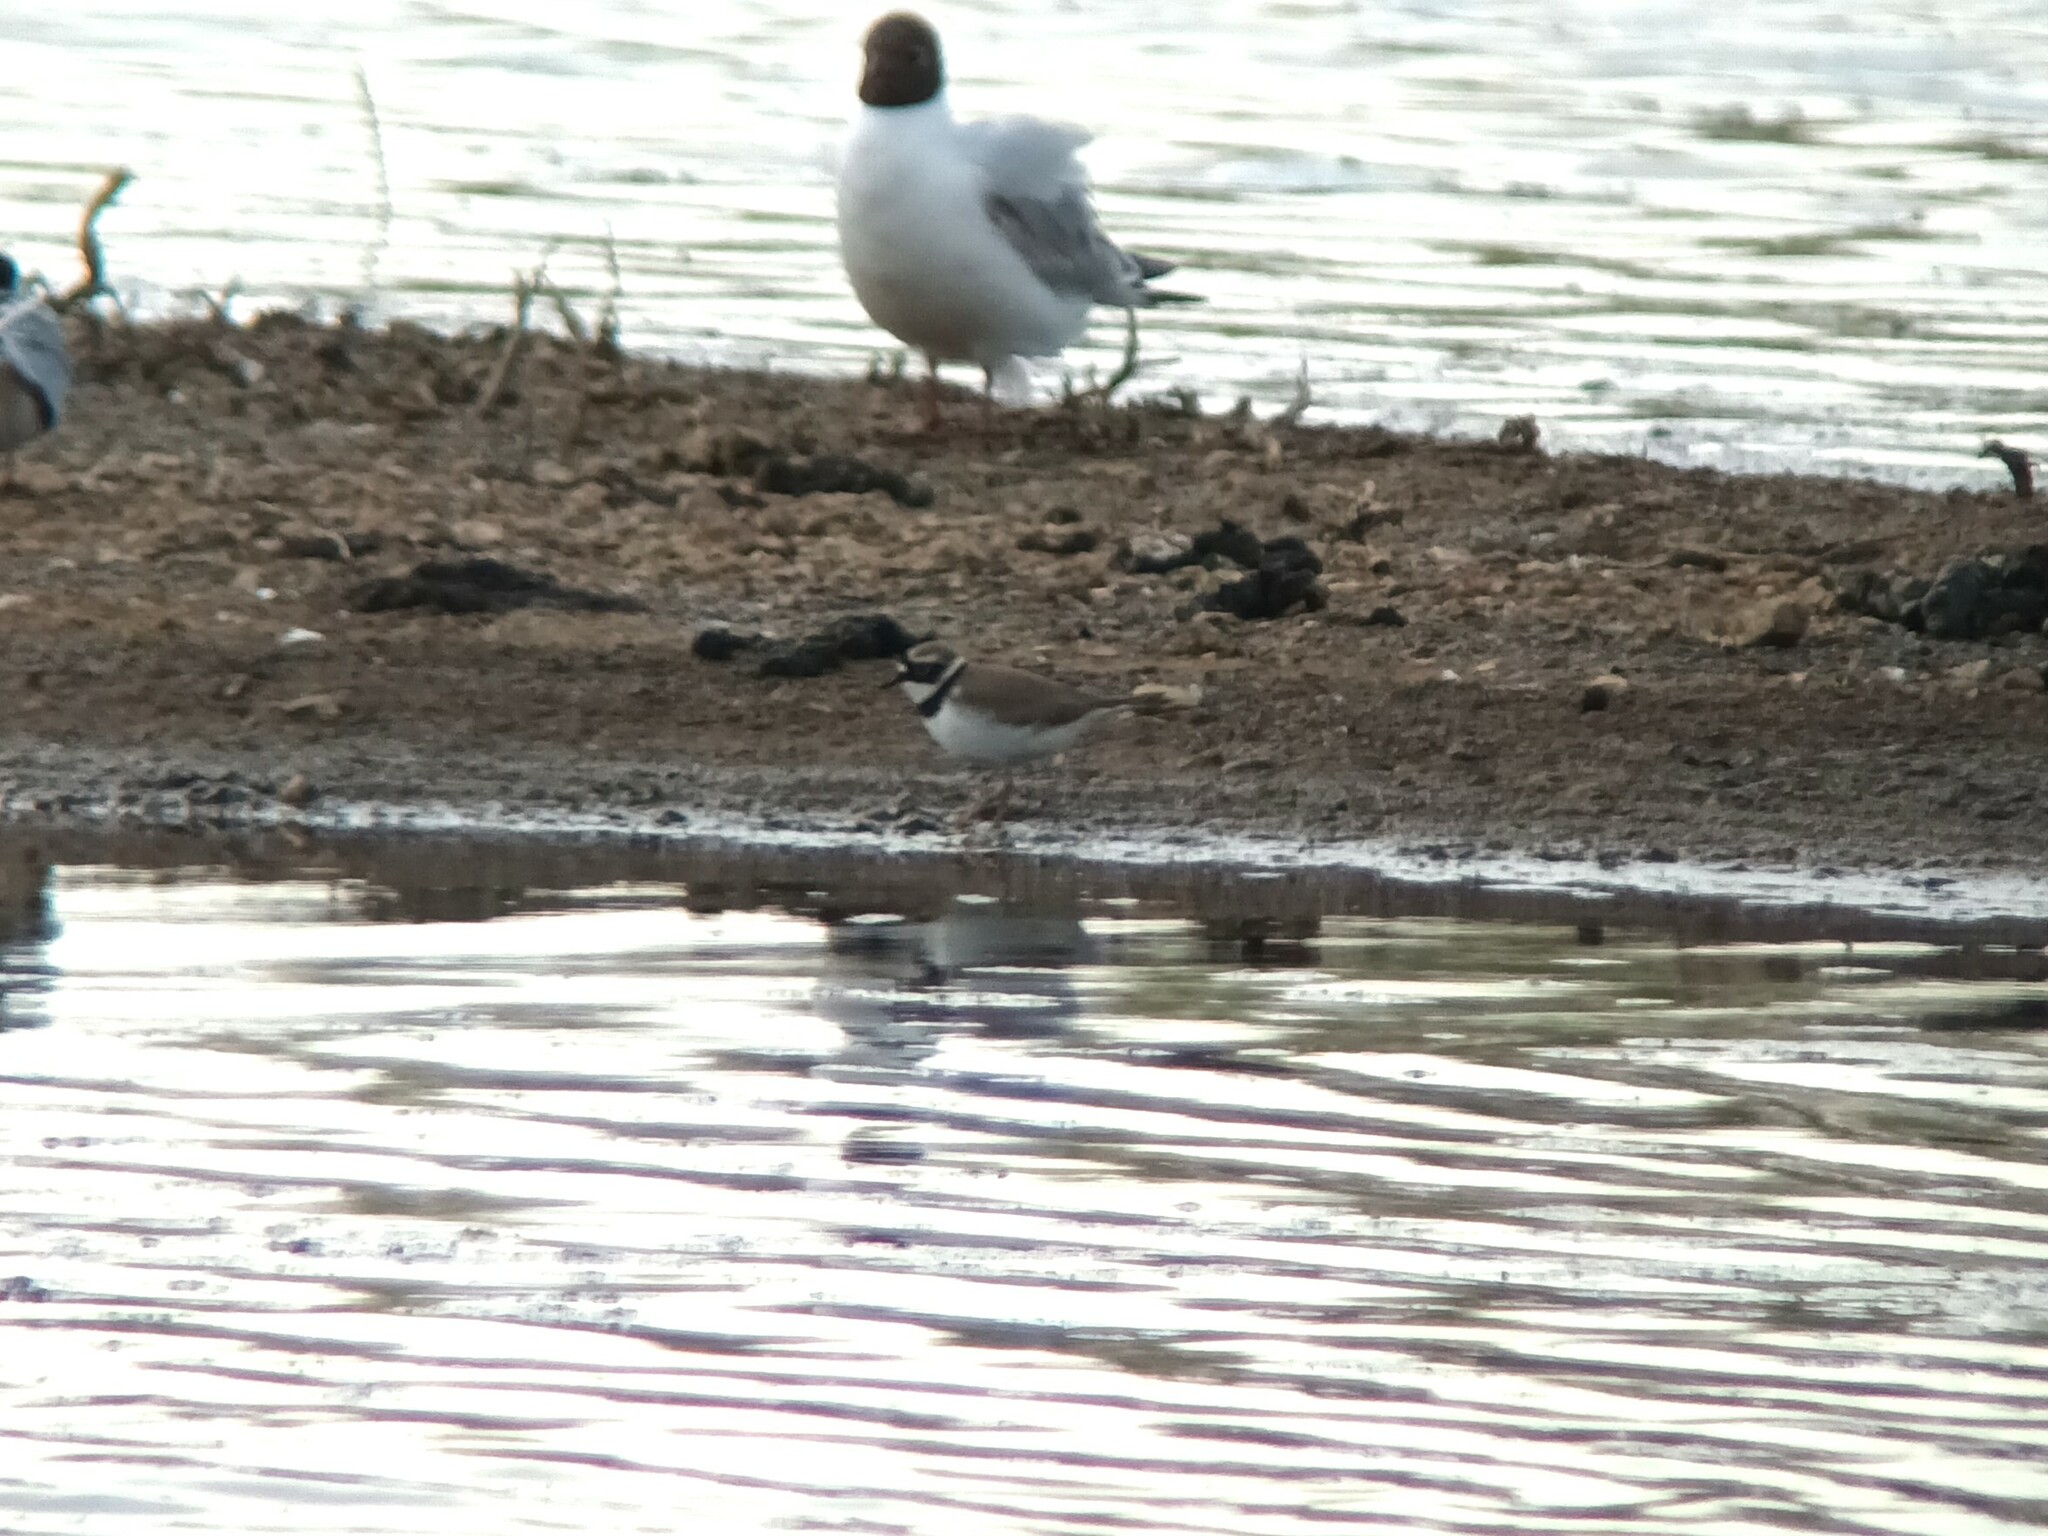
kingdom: Animalia
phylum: Chordata
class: Aves
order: Charadriiformes
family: Charadriidae
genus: Charadrius
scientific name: Charadrius dubius
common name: Little ringed plover
